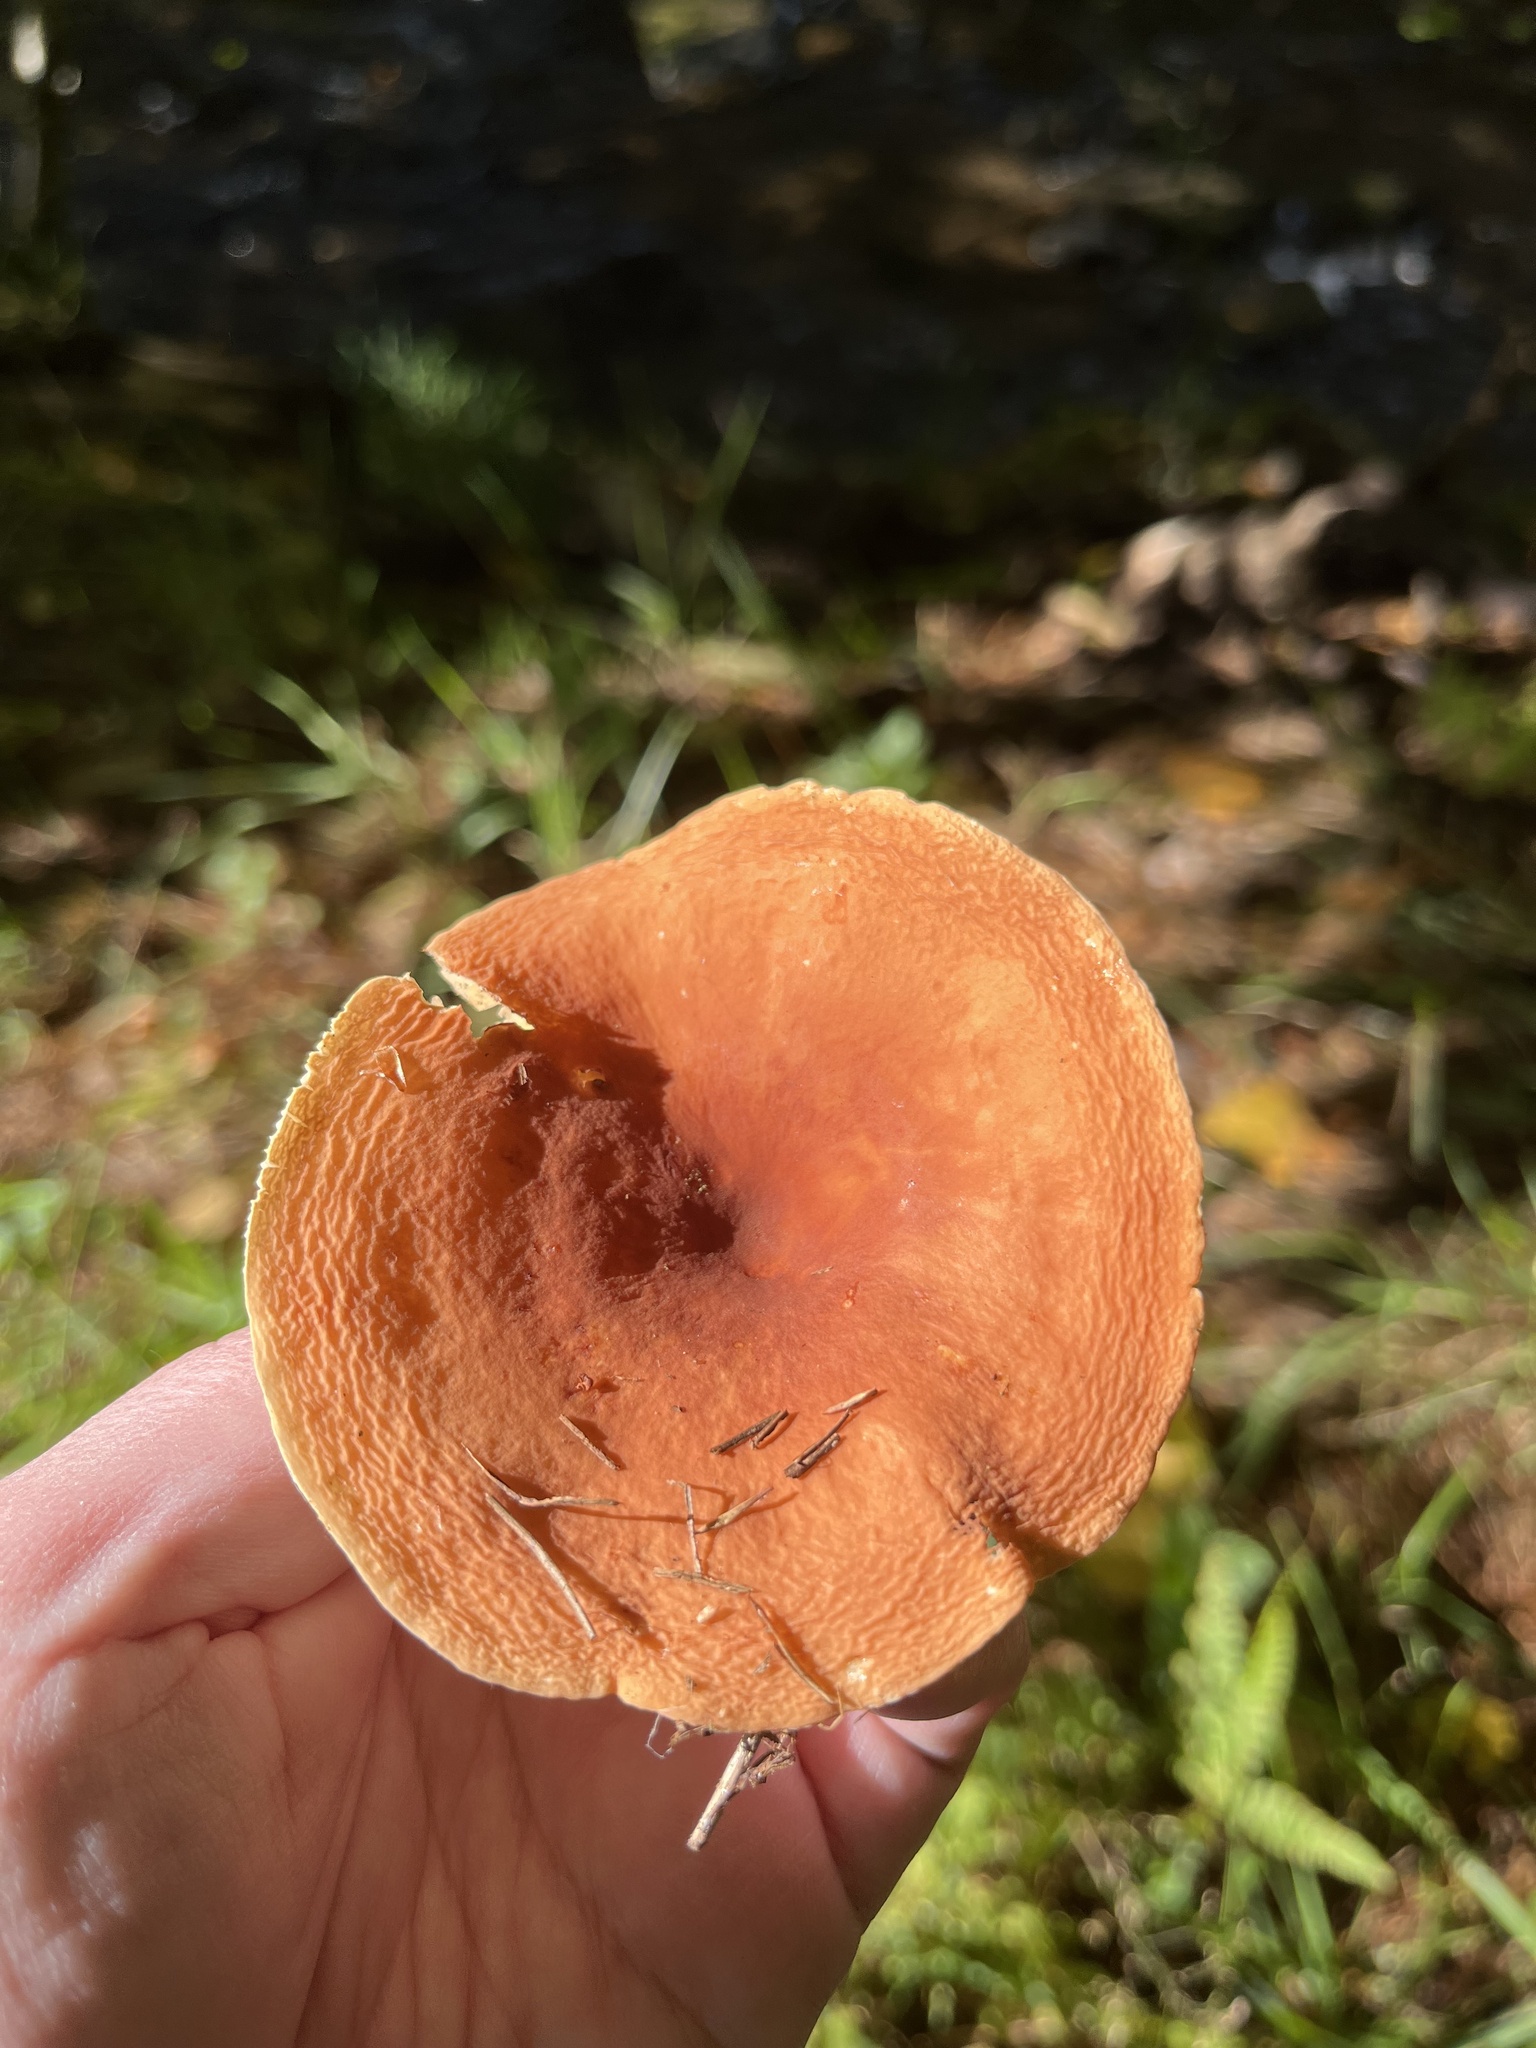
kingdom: Fungi
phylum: Basidiomycota
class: Agaricomycetes
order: Russulales
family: Russulaceae
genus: Lactarius
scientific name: Lactarius hygrophoroides
